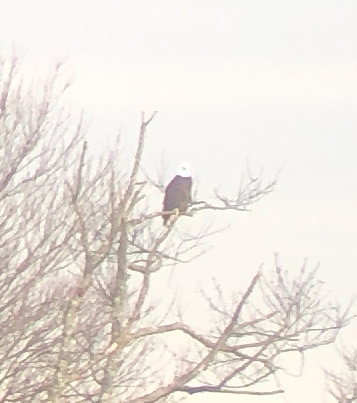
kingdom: Animalia
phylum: Chordata
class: Aves
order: Accipitriformes
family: Accipitridae
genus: Haliaeetus
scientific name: Haliaeetus leucocephalus
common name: Bald eagle
